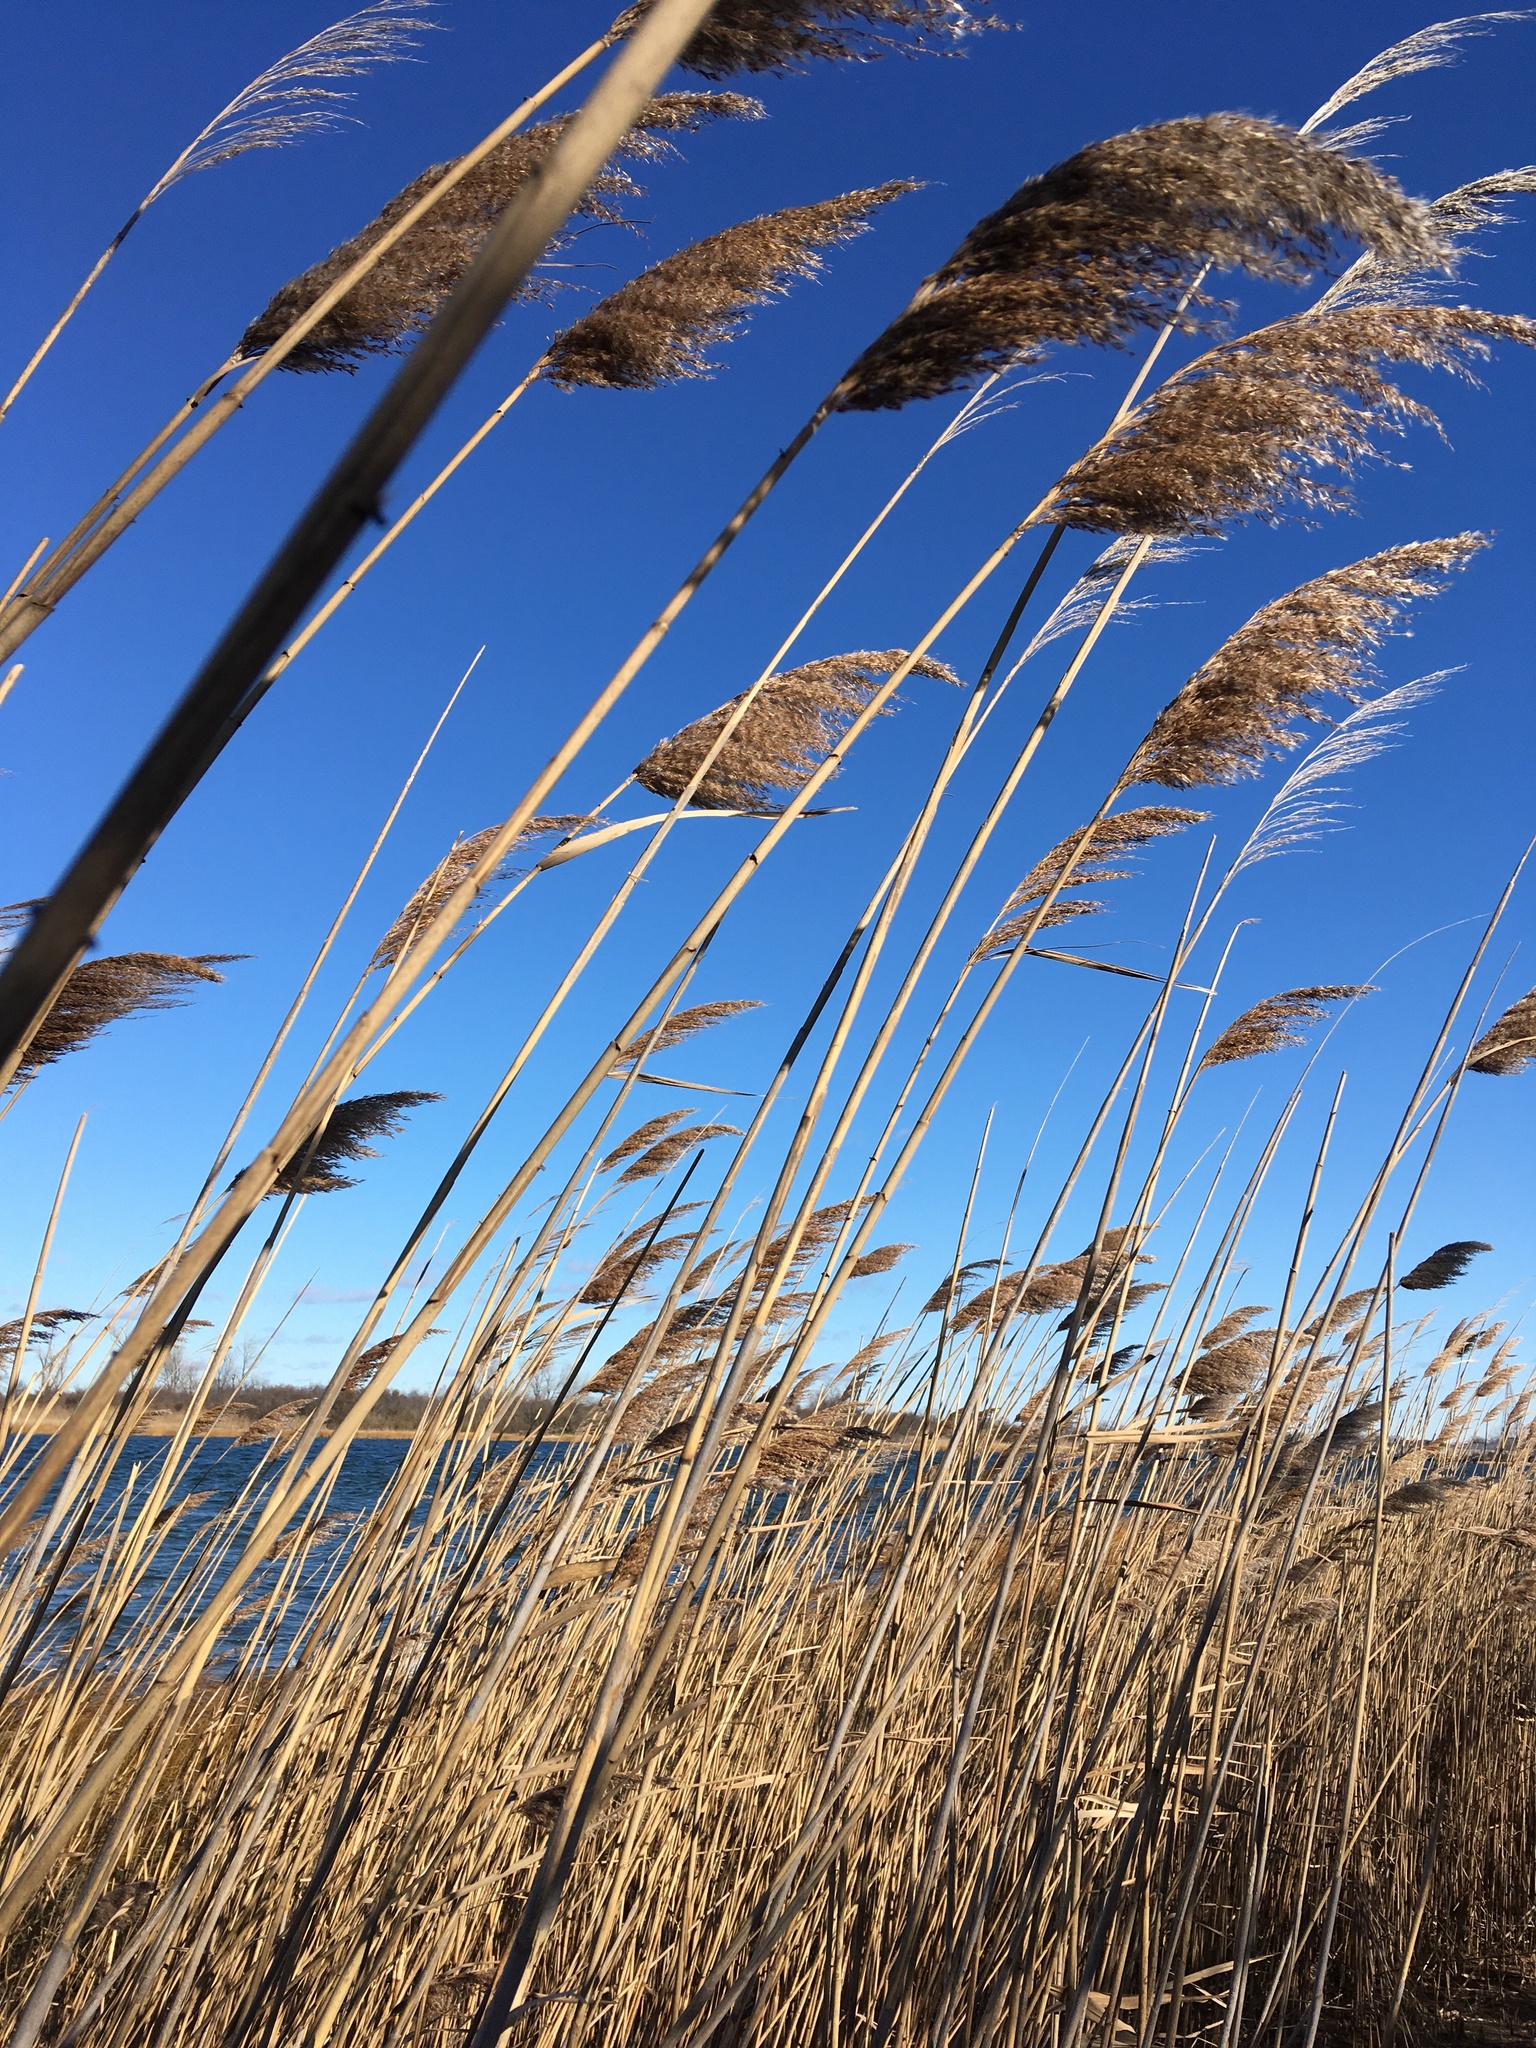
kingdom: Plantae
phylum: Tracheophyta
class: Liliopsida
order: Poales
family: Poaceae
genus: Phragmites
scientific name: Phragmites australis
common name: Common reed
